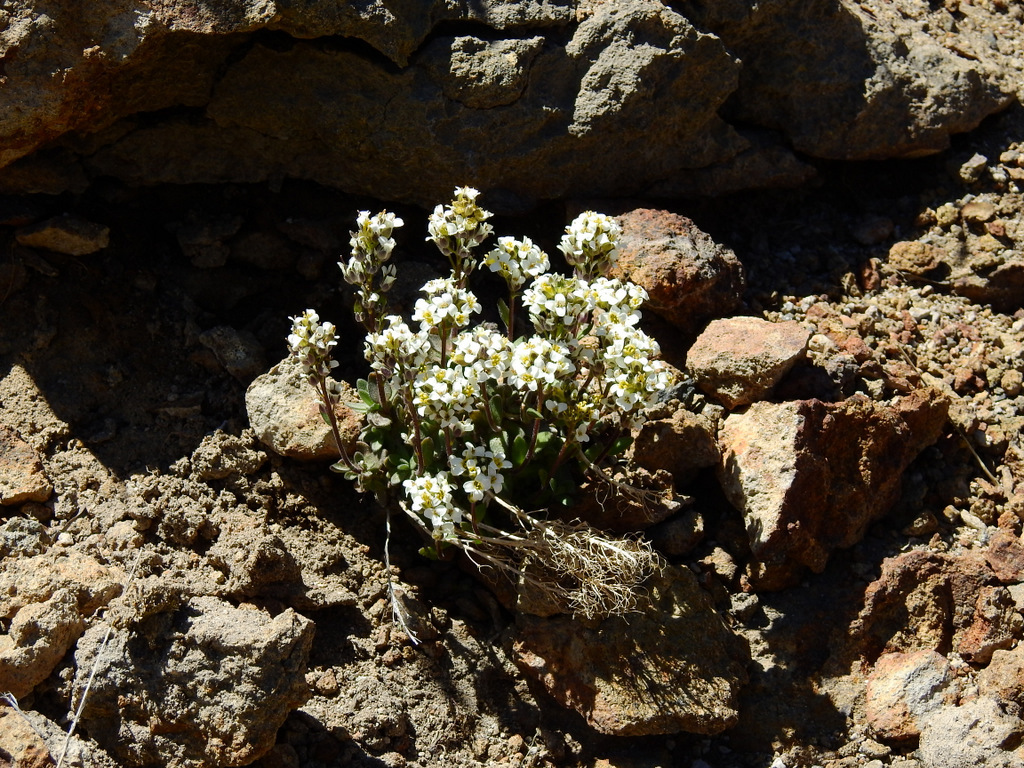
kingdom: Plantae
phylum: Tracheophyta
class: Magnoliopsida
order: Brassicales
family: Brassicaceae
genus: Draba
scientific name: Draba magellanica
